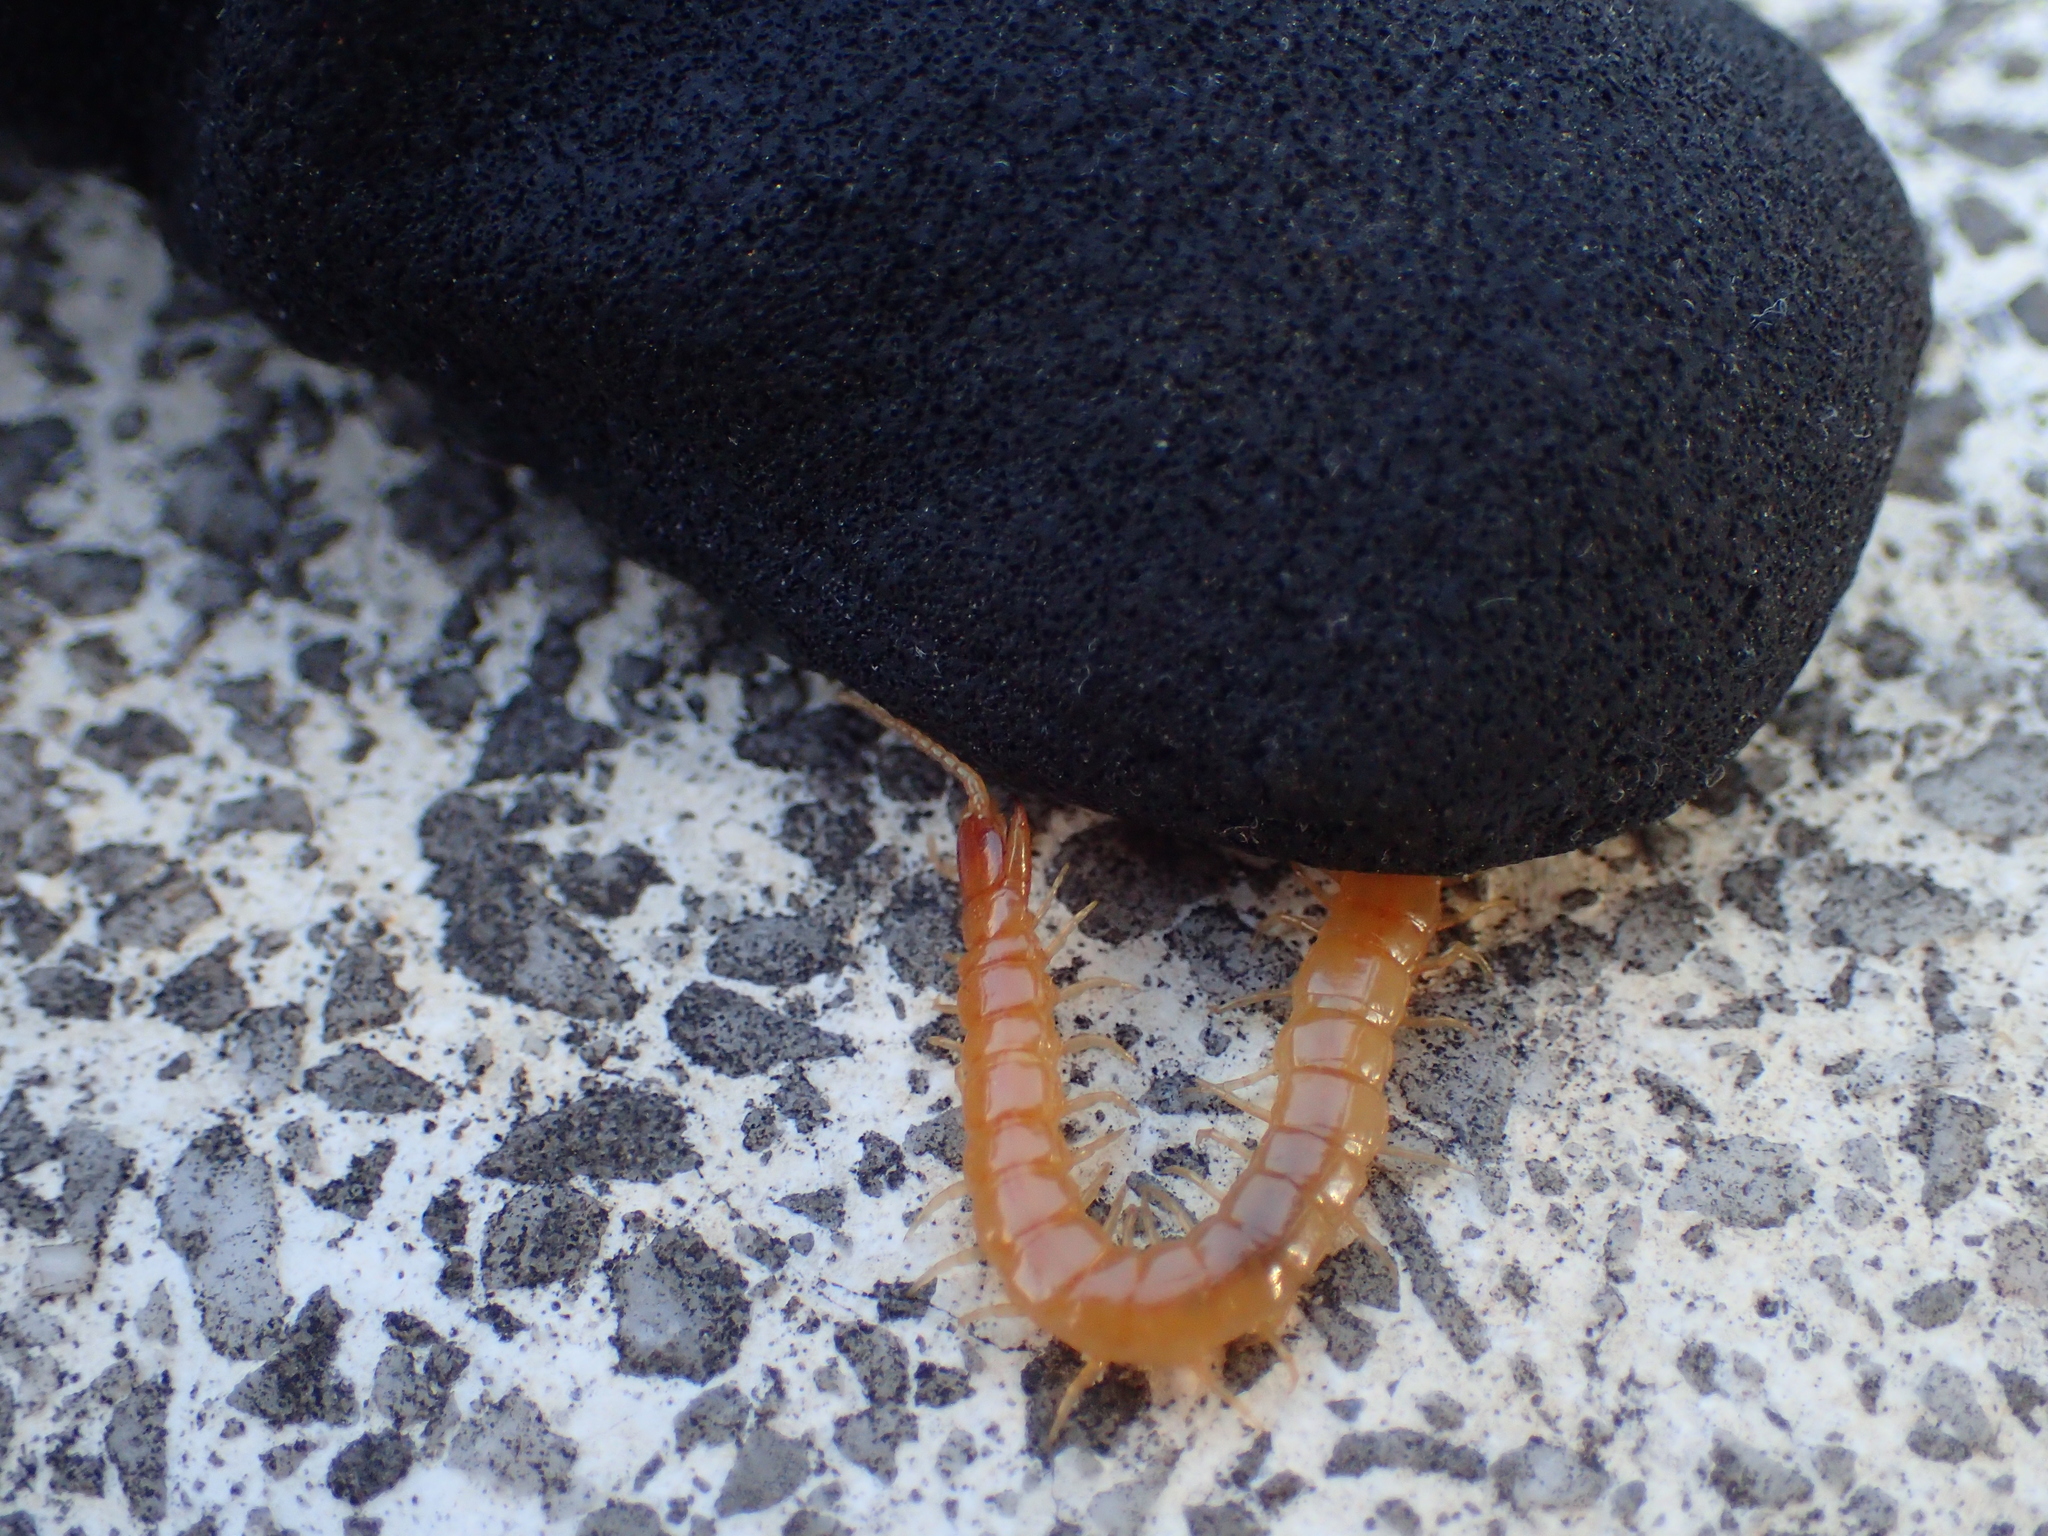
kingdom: Animalia
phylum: Arthropoda
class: Chilopoda
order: Scolopendromorpha
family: Cryptopidae
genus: Theatops
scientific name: Theatops erythrocephalus
